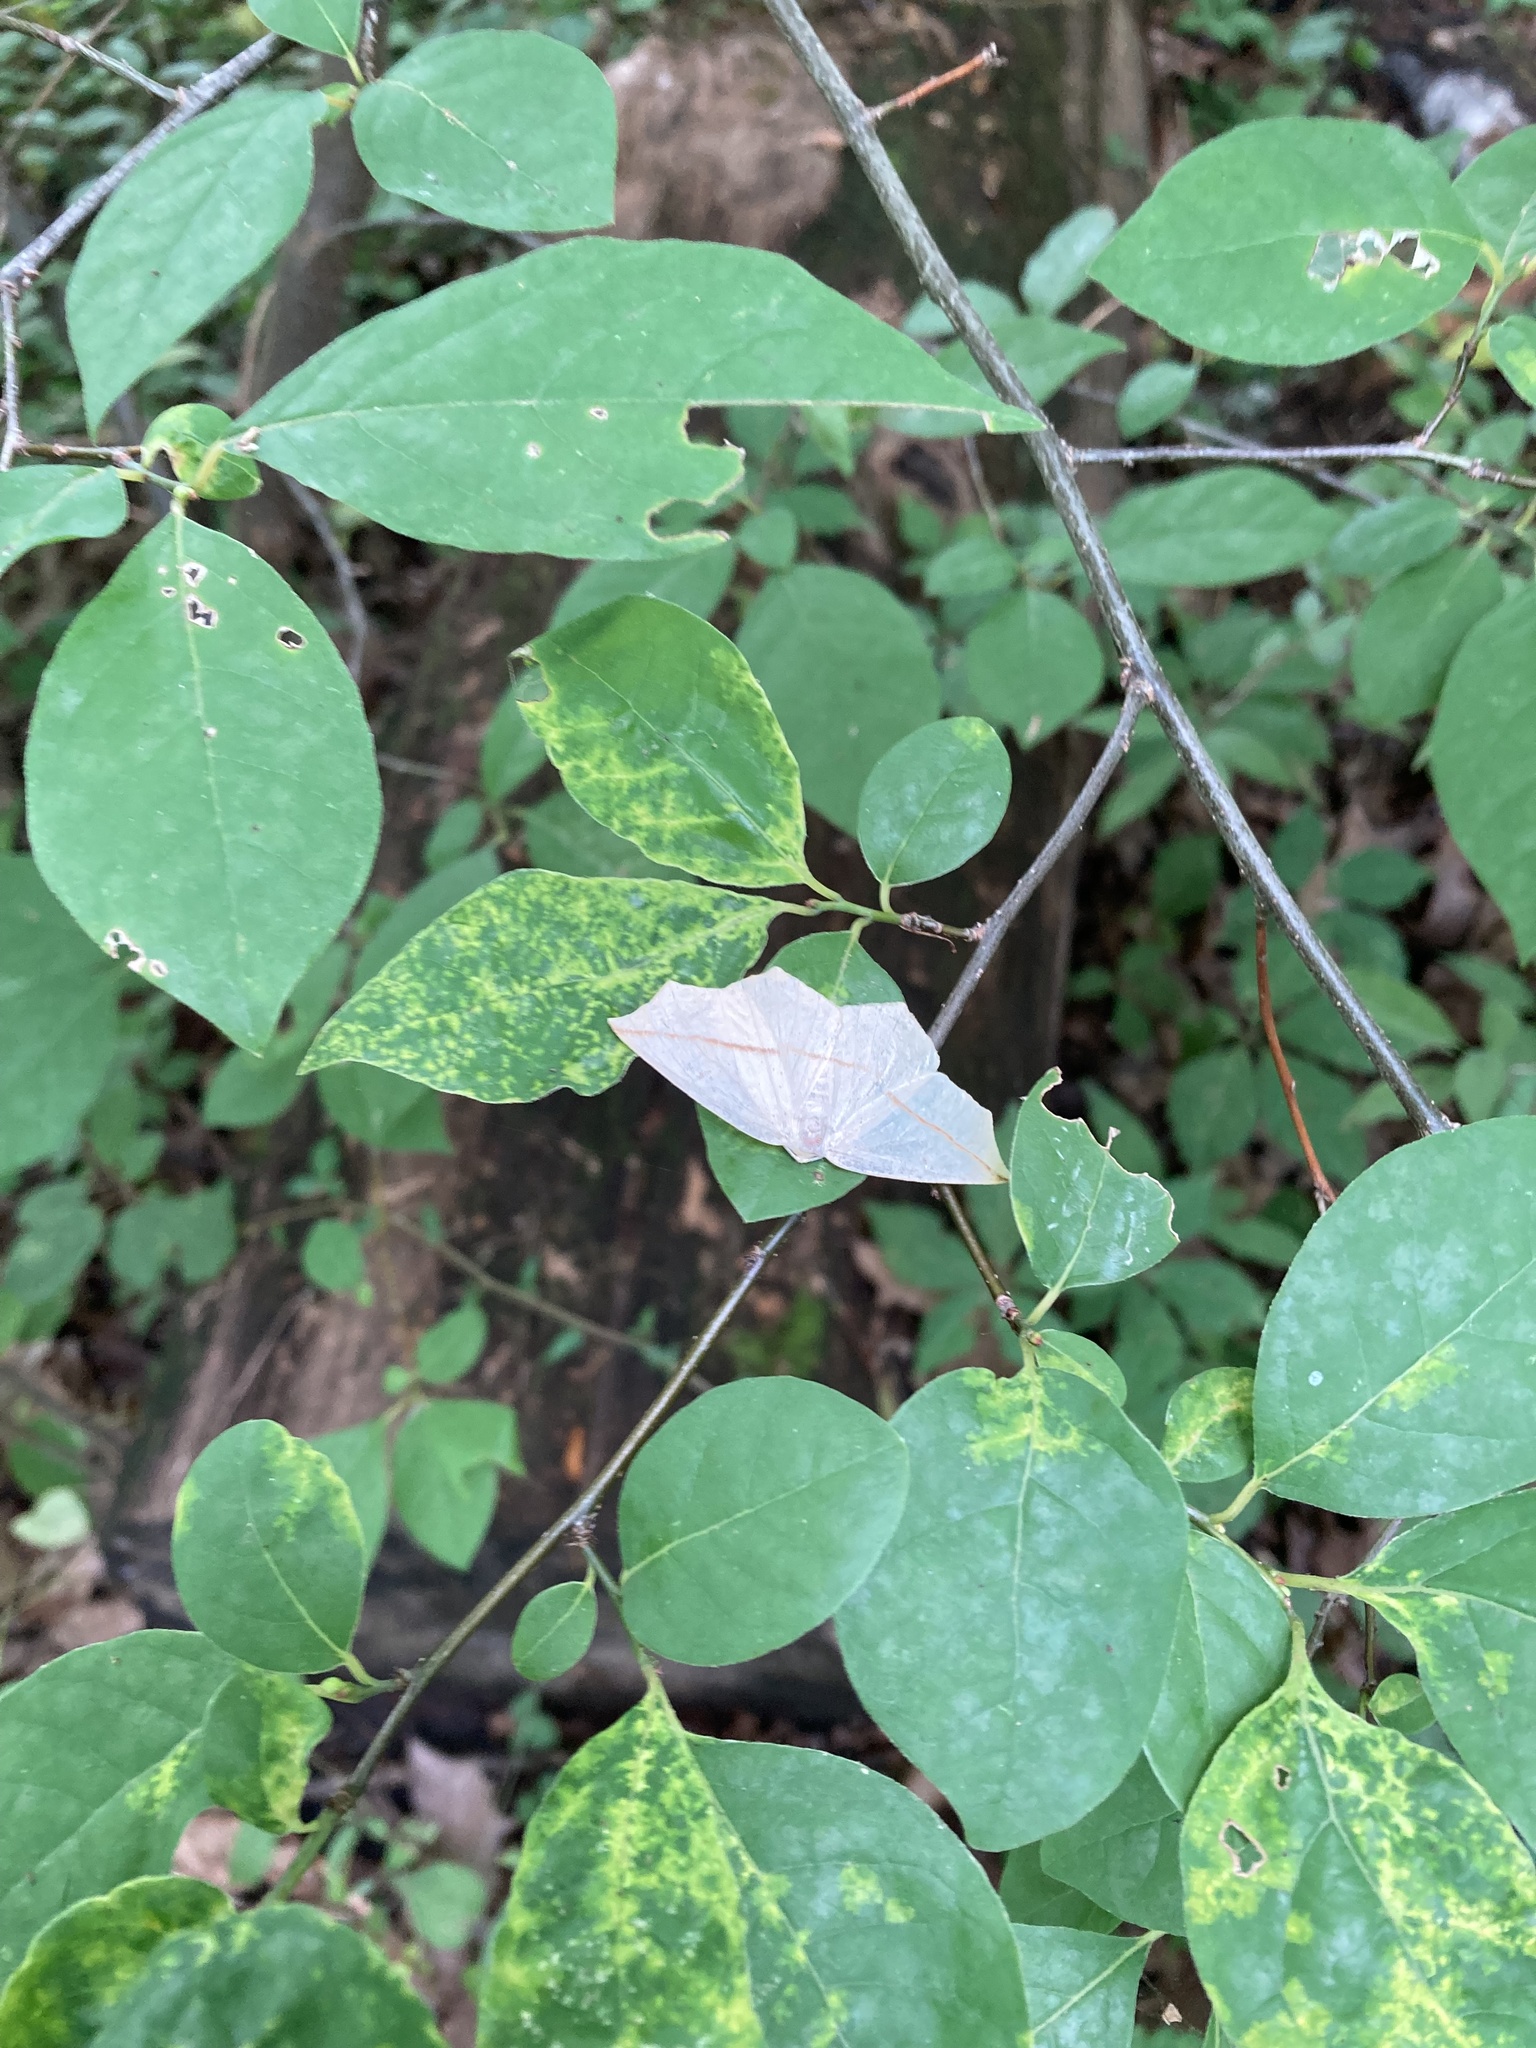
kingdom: Animalia
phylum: Arthropoda
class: Insecta
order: Lepidoptera
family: Geometridae
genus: Tetracis
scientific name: Tetracis crocallata
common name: Yellow slant-line
